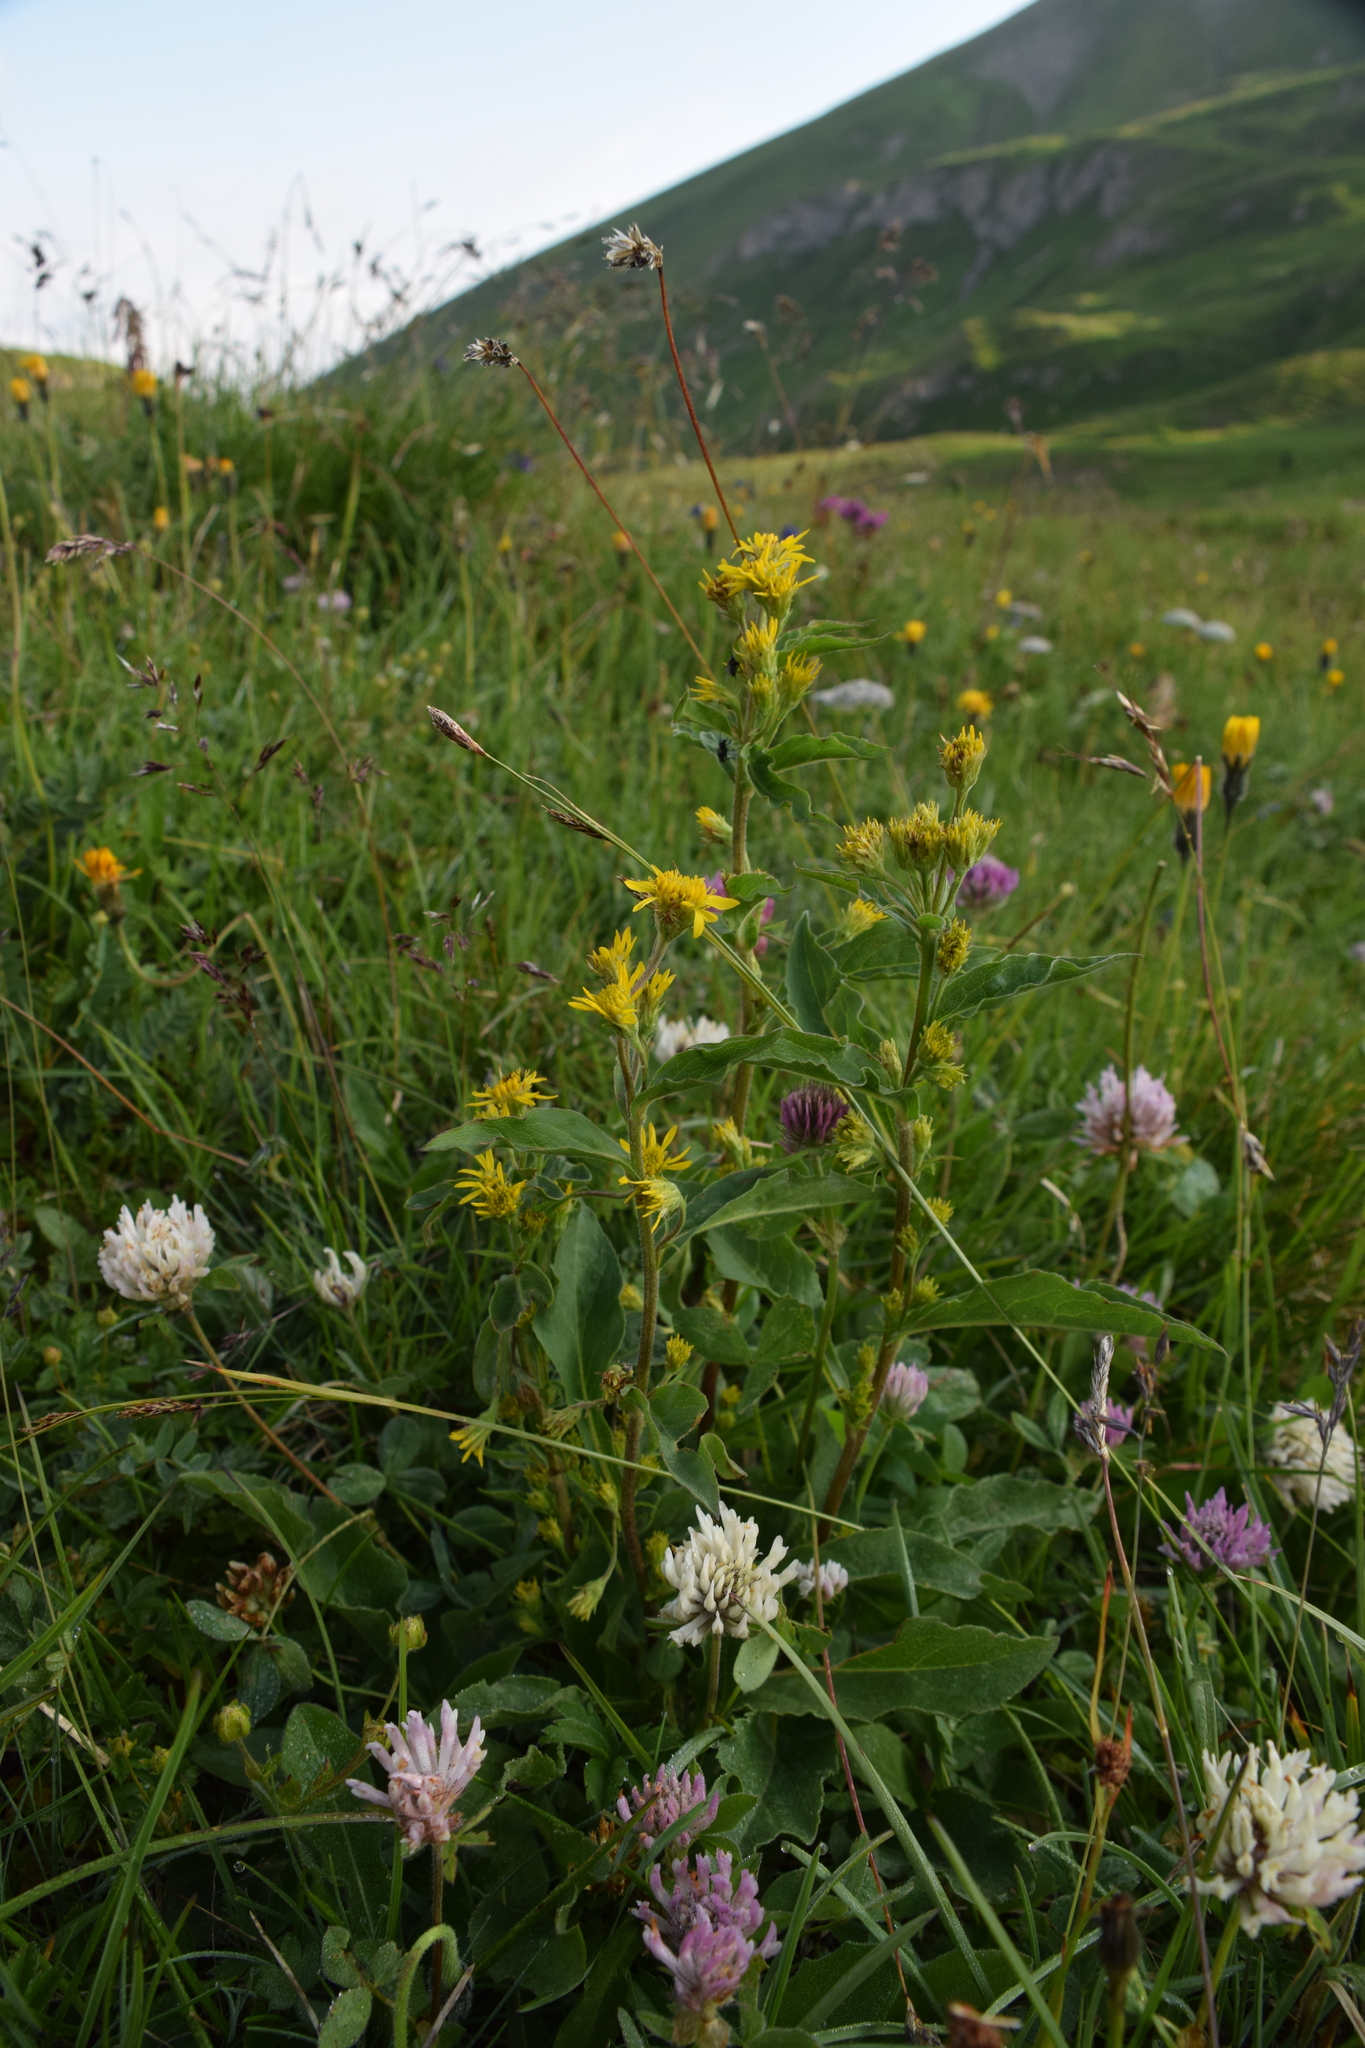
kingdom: Plantae
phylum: Tracheophyta
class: Magnoliopsida
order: Asterales
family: Asteraceae
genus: Solidago
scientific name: Solidago virgaurea
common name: Goldenrod
